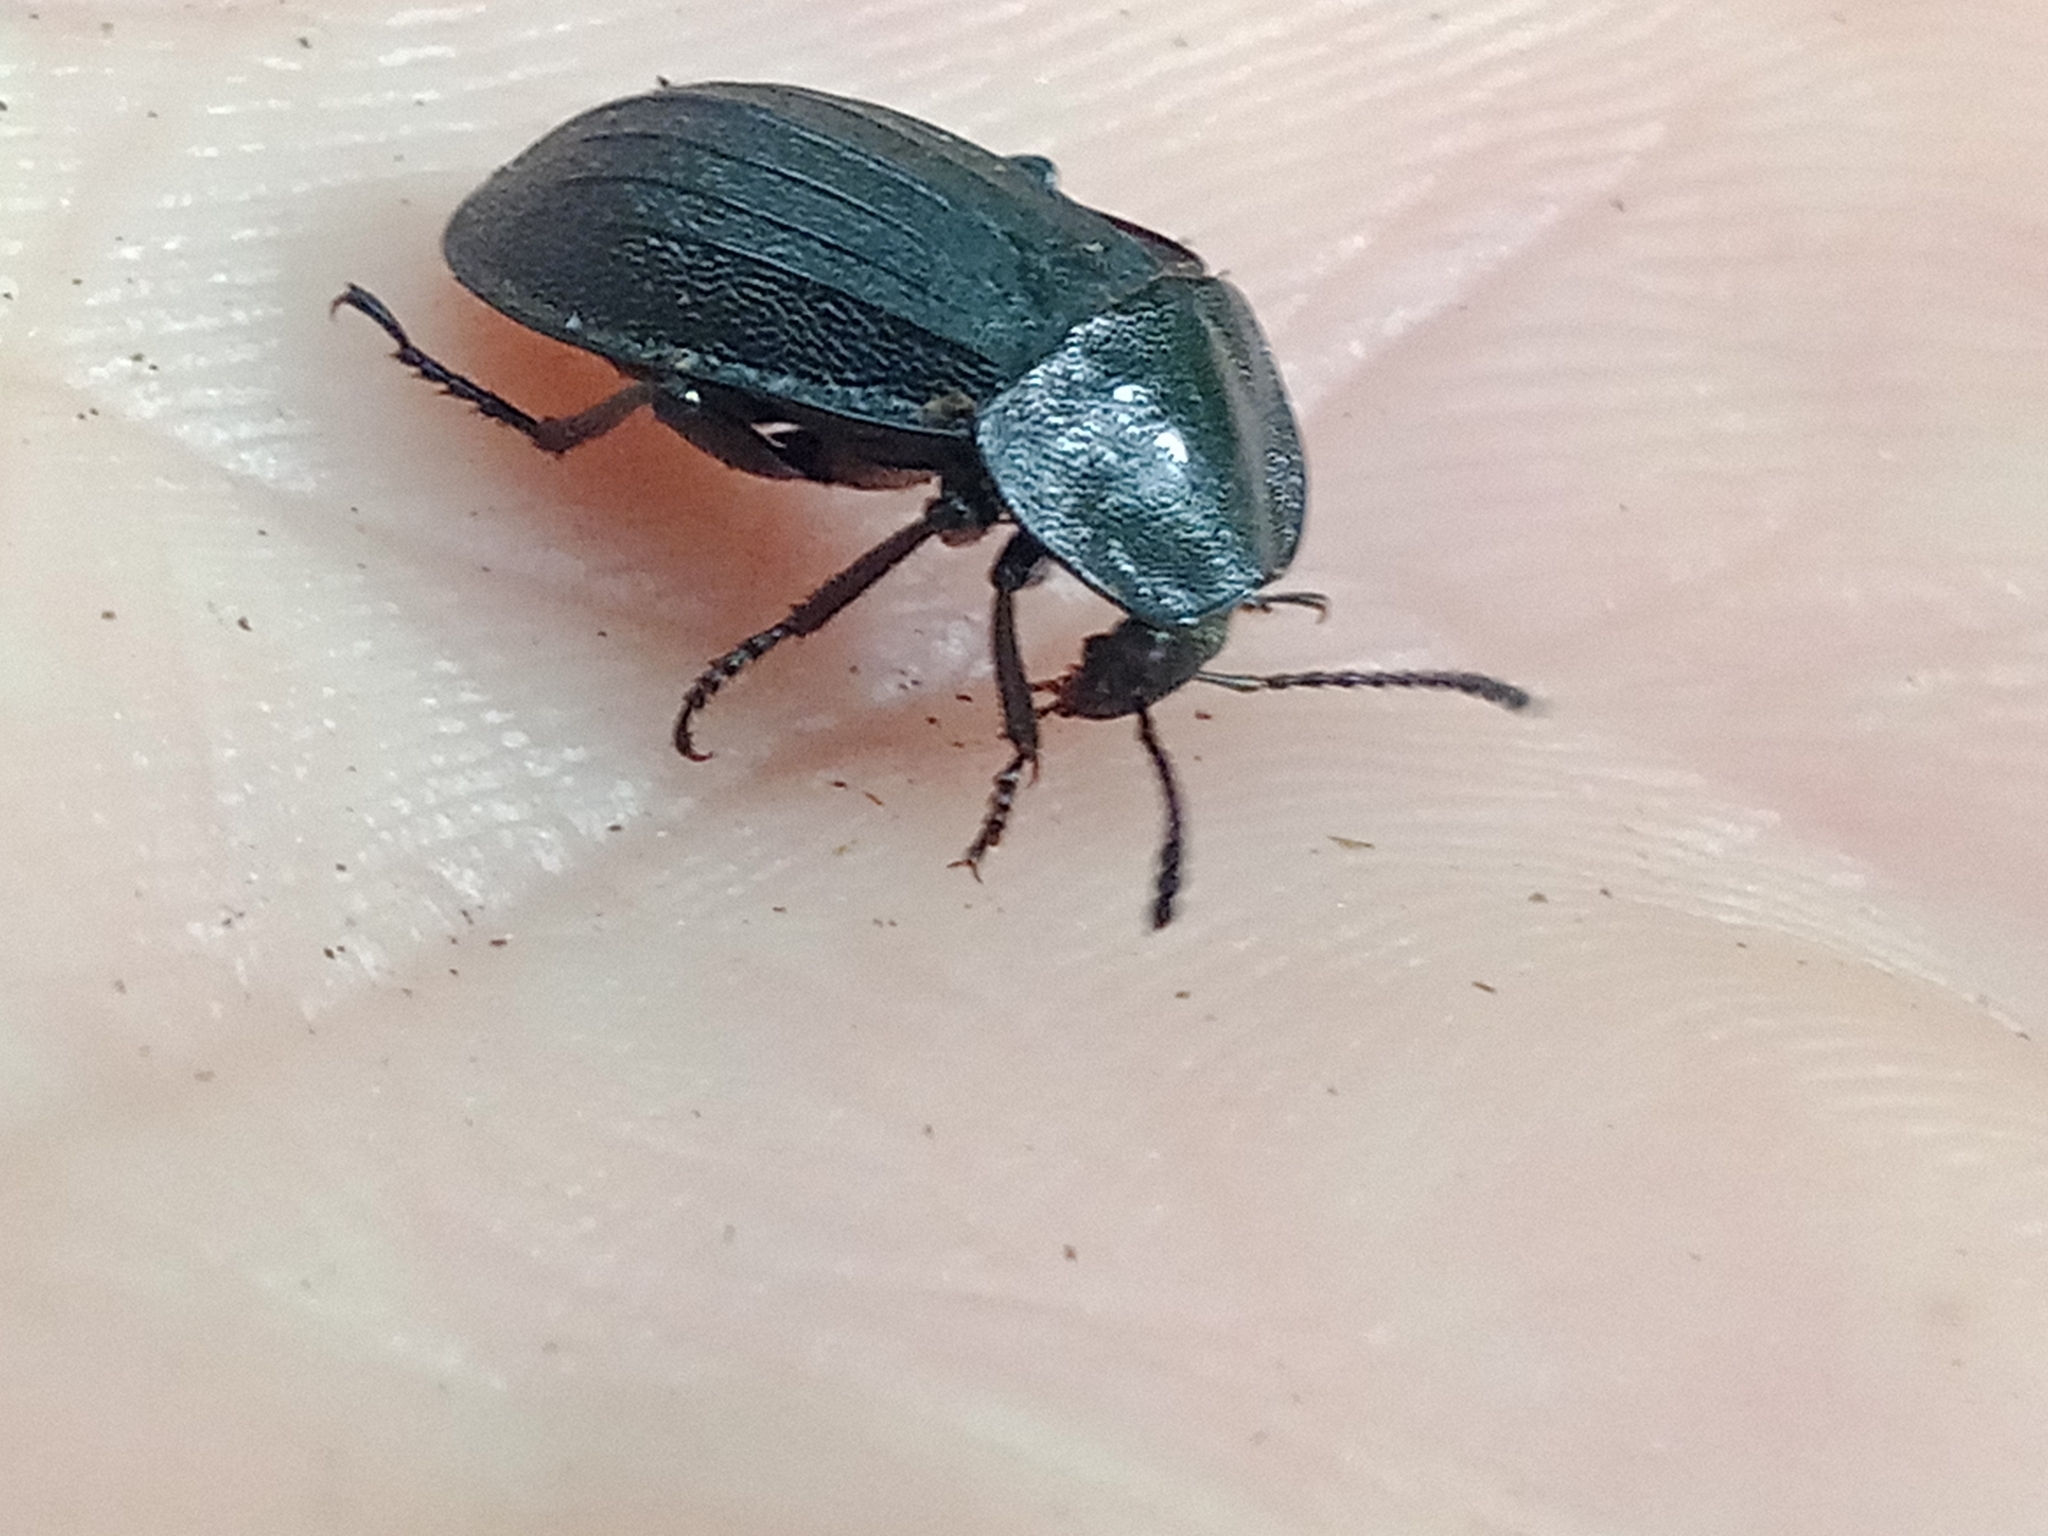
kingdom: Animalia
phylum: Arthropoda
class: Insecta
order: Coleoptera
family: Staphylinidae
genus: Silpha
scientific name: Silpha atrata
